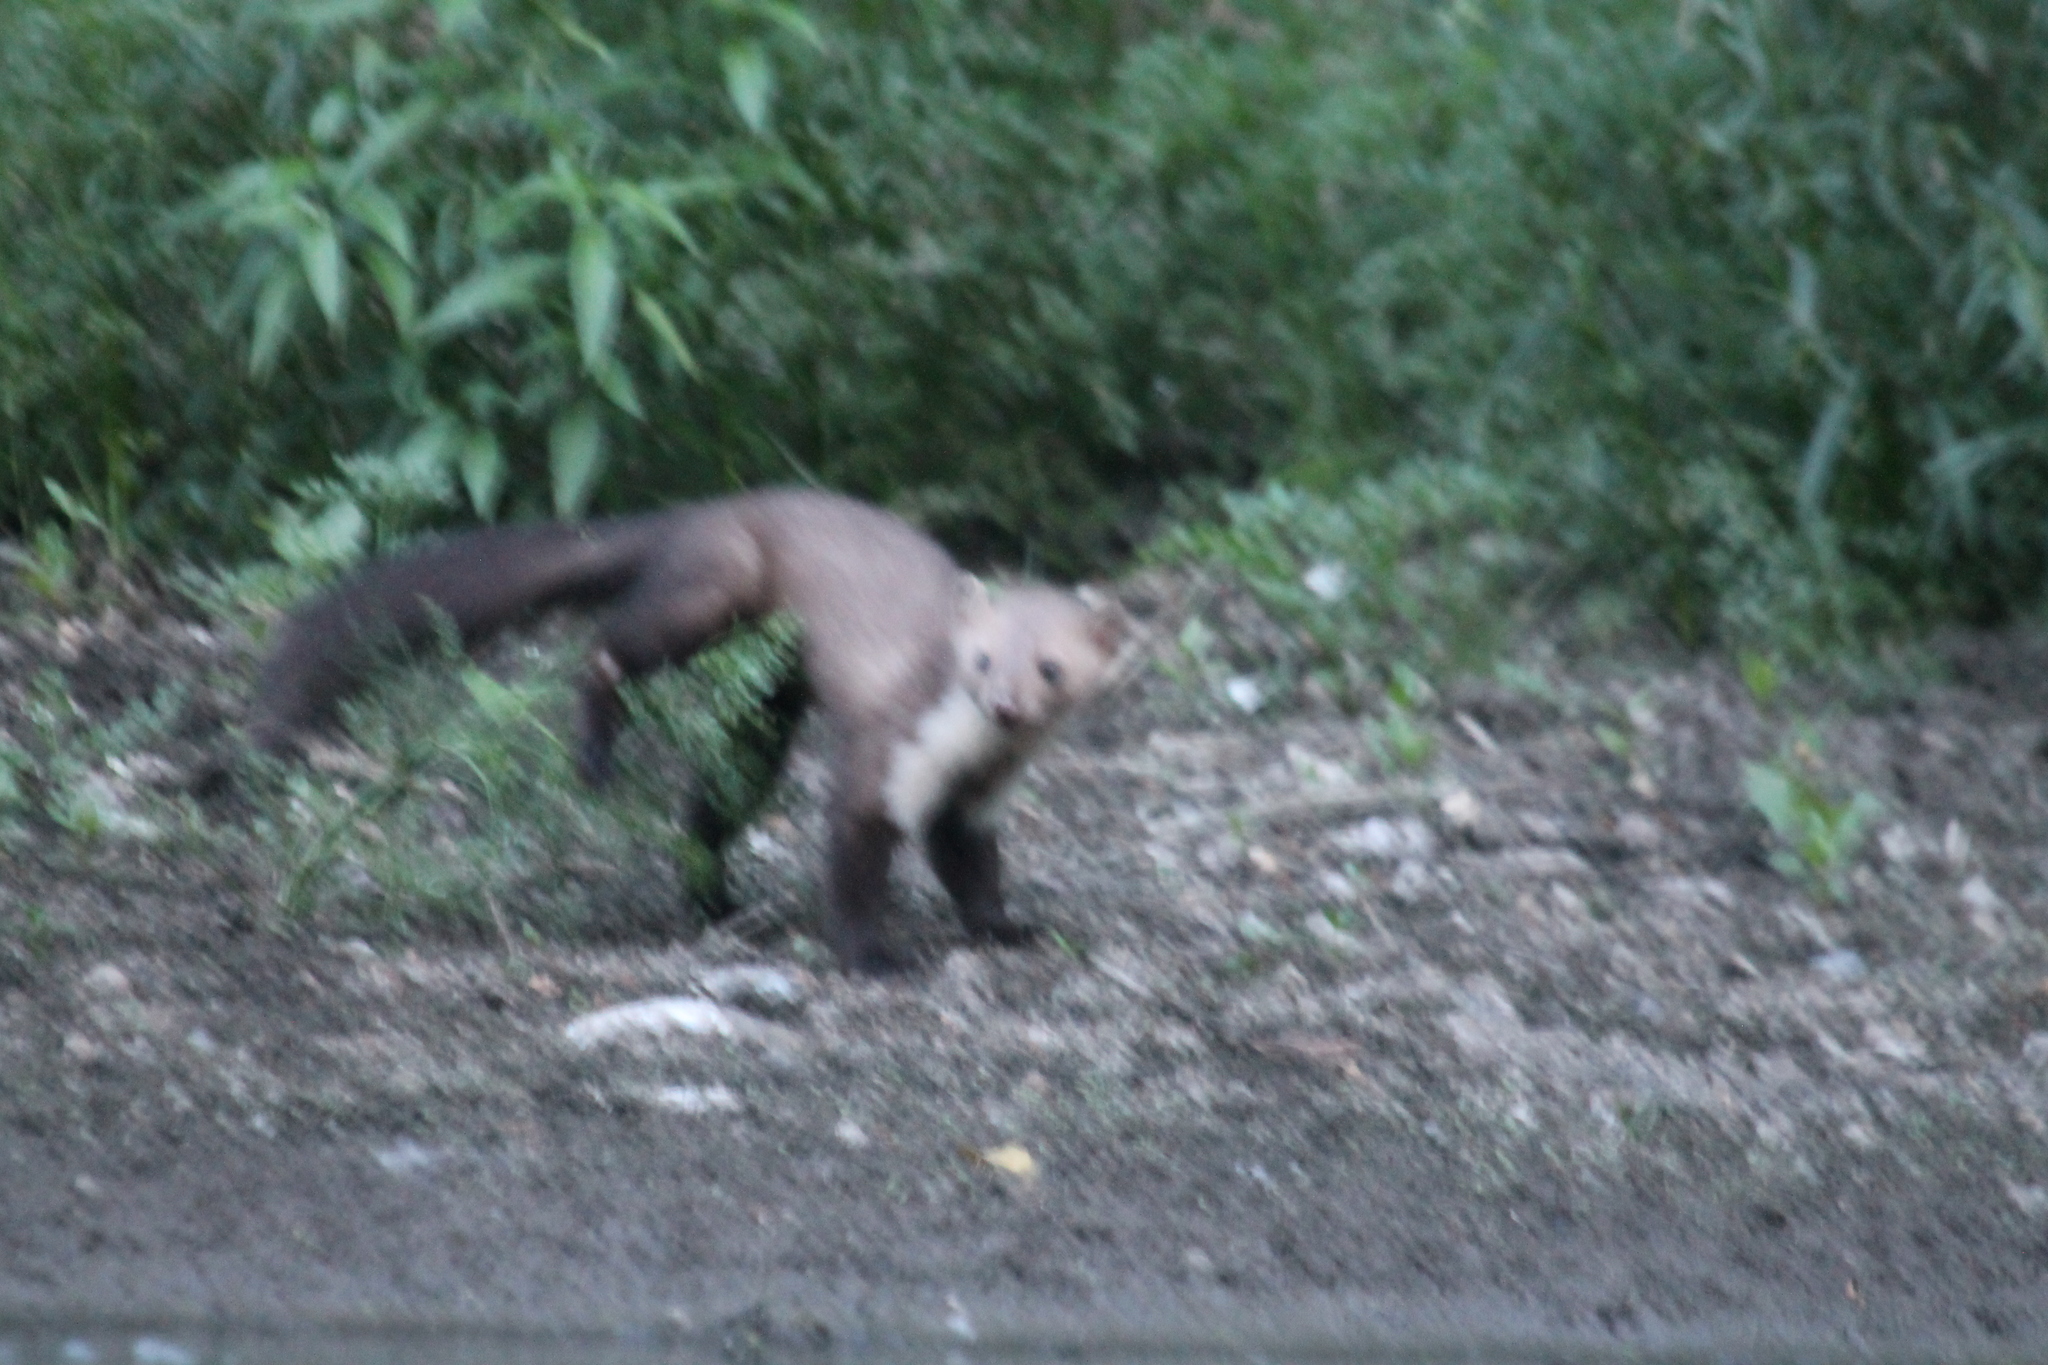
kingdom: Animalia
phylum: Chordata
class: Mammalia
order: Carnivora
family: Mustelidae
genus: Martes
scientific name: Martes foina
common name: Beech marten
